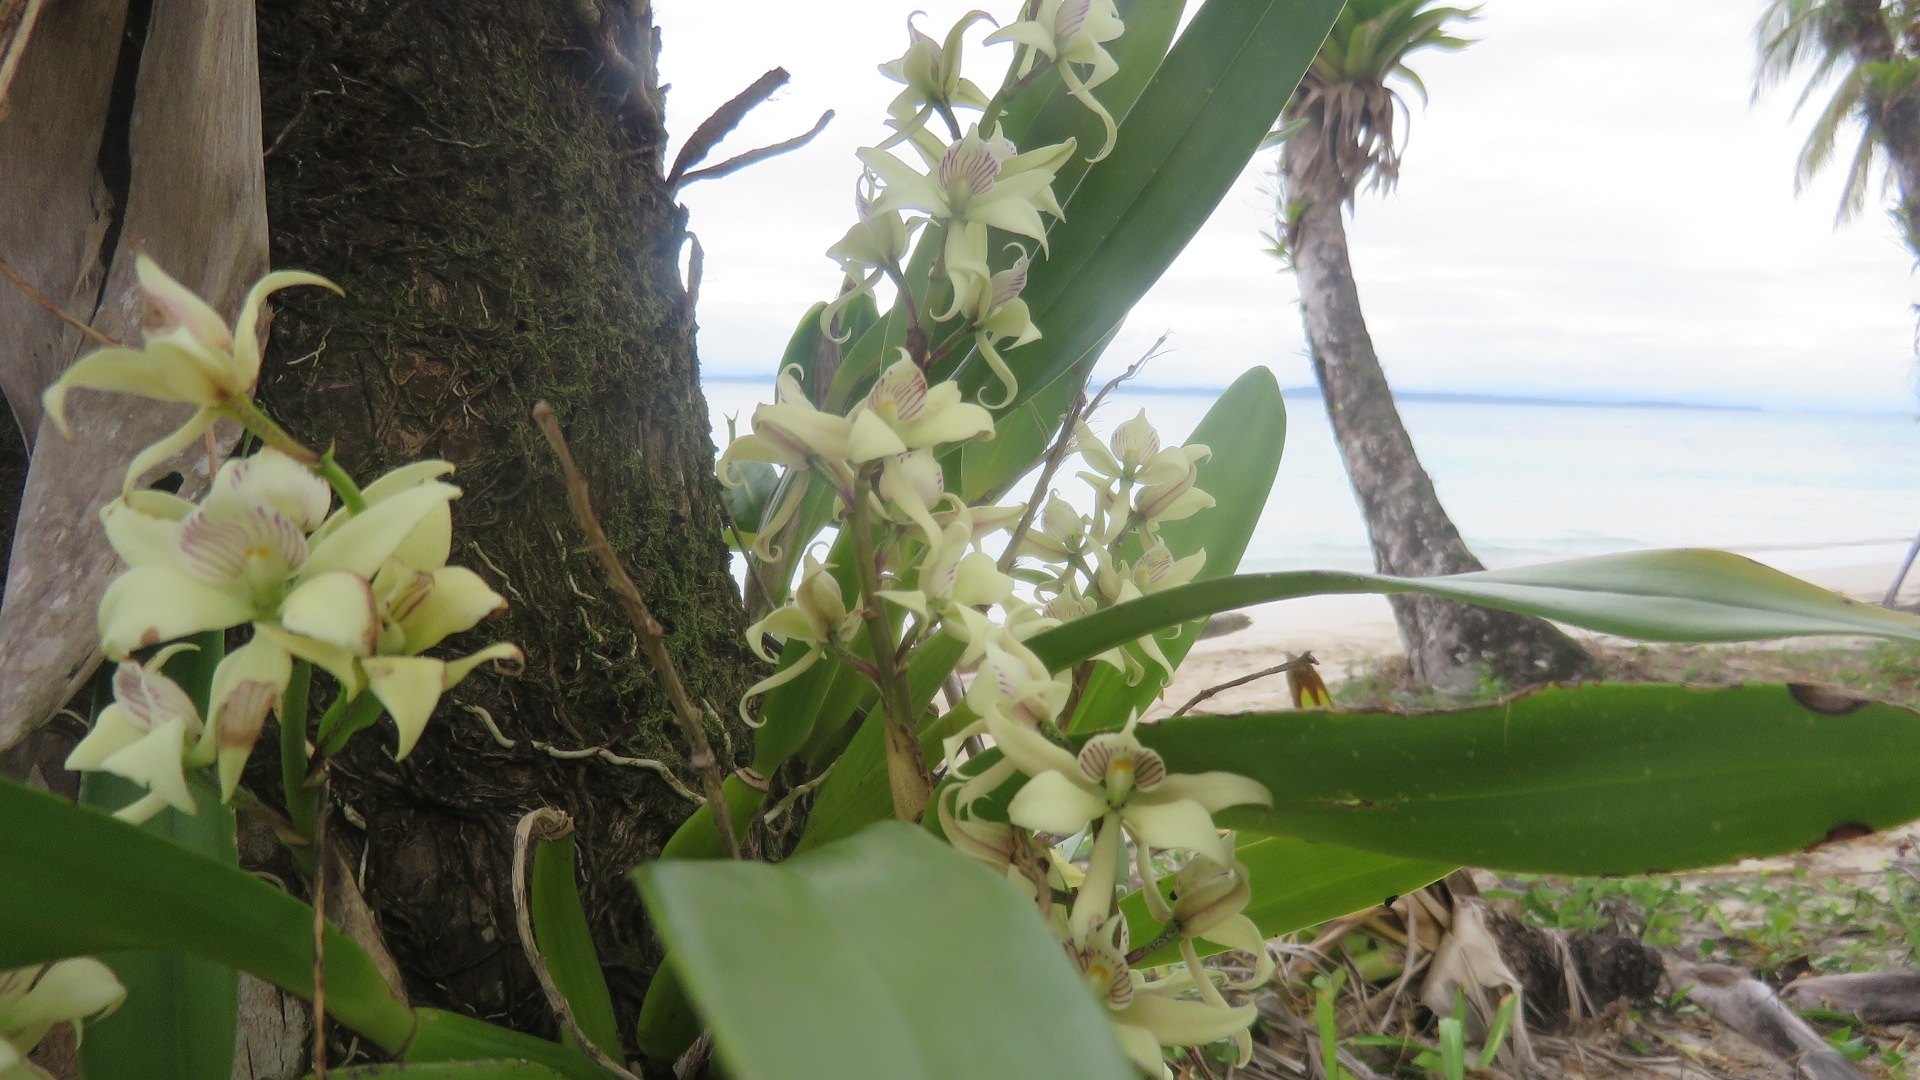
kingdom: Plantae
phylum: Tracheophyta
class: Liliopsida
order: Asparagales
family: Orchidaceae
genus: Prosthechea
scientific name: Prosthechea fragrans
